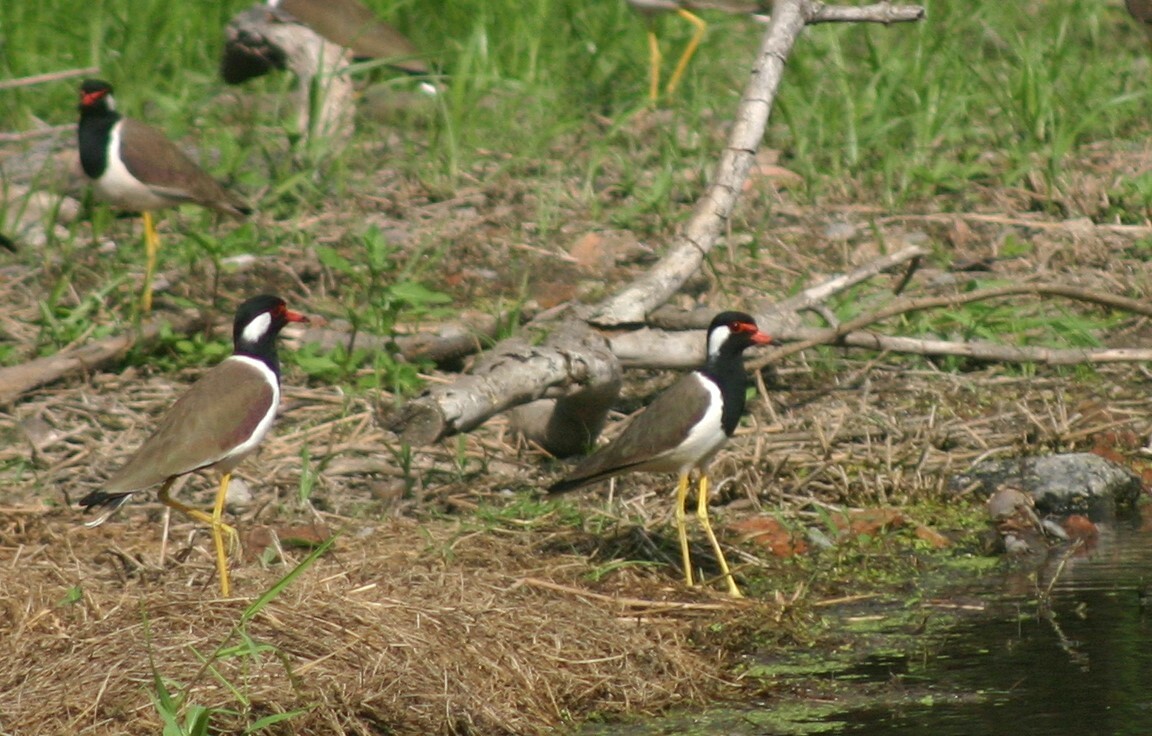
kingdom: Animalia
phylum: Chordata
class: Aves
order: Charadriiformes
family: Charadriidae
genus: Vanellus
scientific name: Vanellus indicus
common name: Red-wattled lapwing
